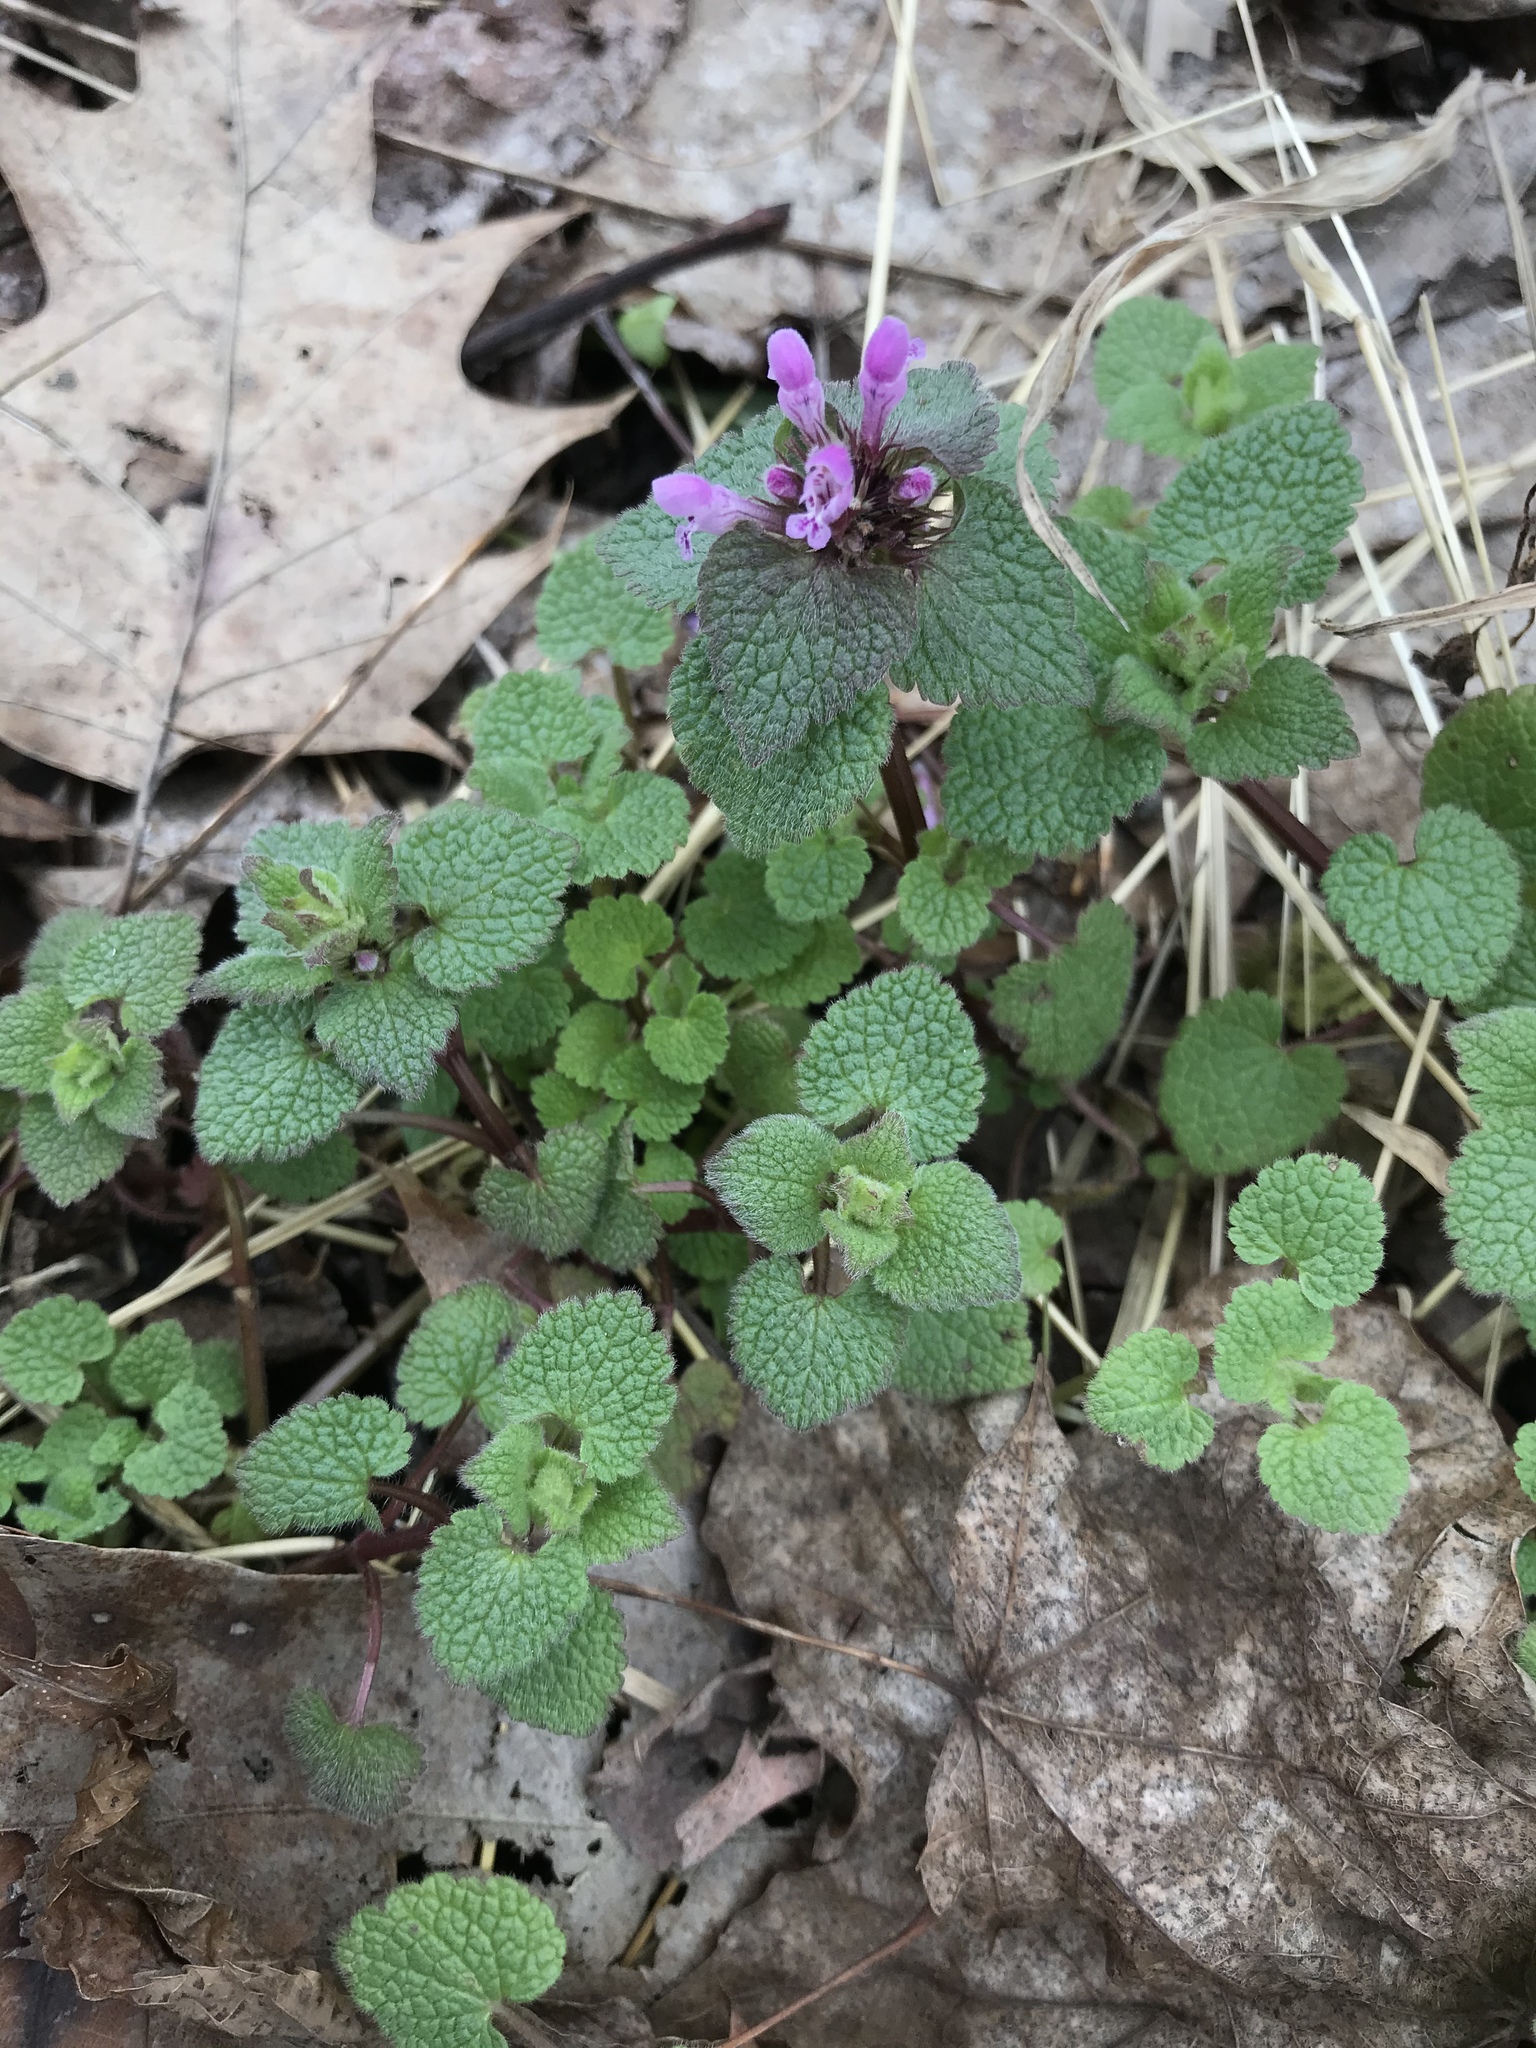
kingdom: Plantae
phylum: Tracheophyta
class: Magnoliopsida
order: Lamiales
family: Lamiaceae
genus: Lamium
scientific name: Lamium purpureum
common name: Red dead-nettle
